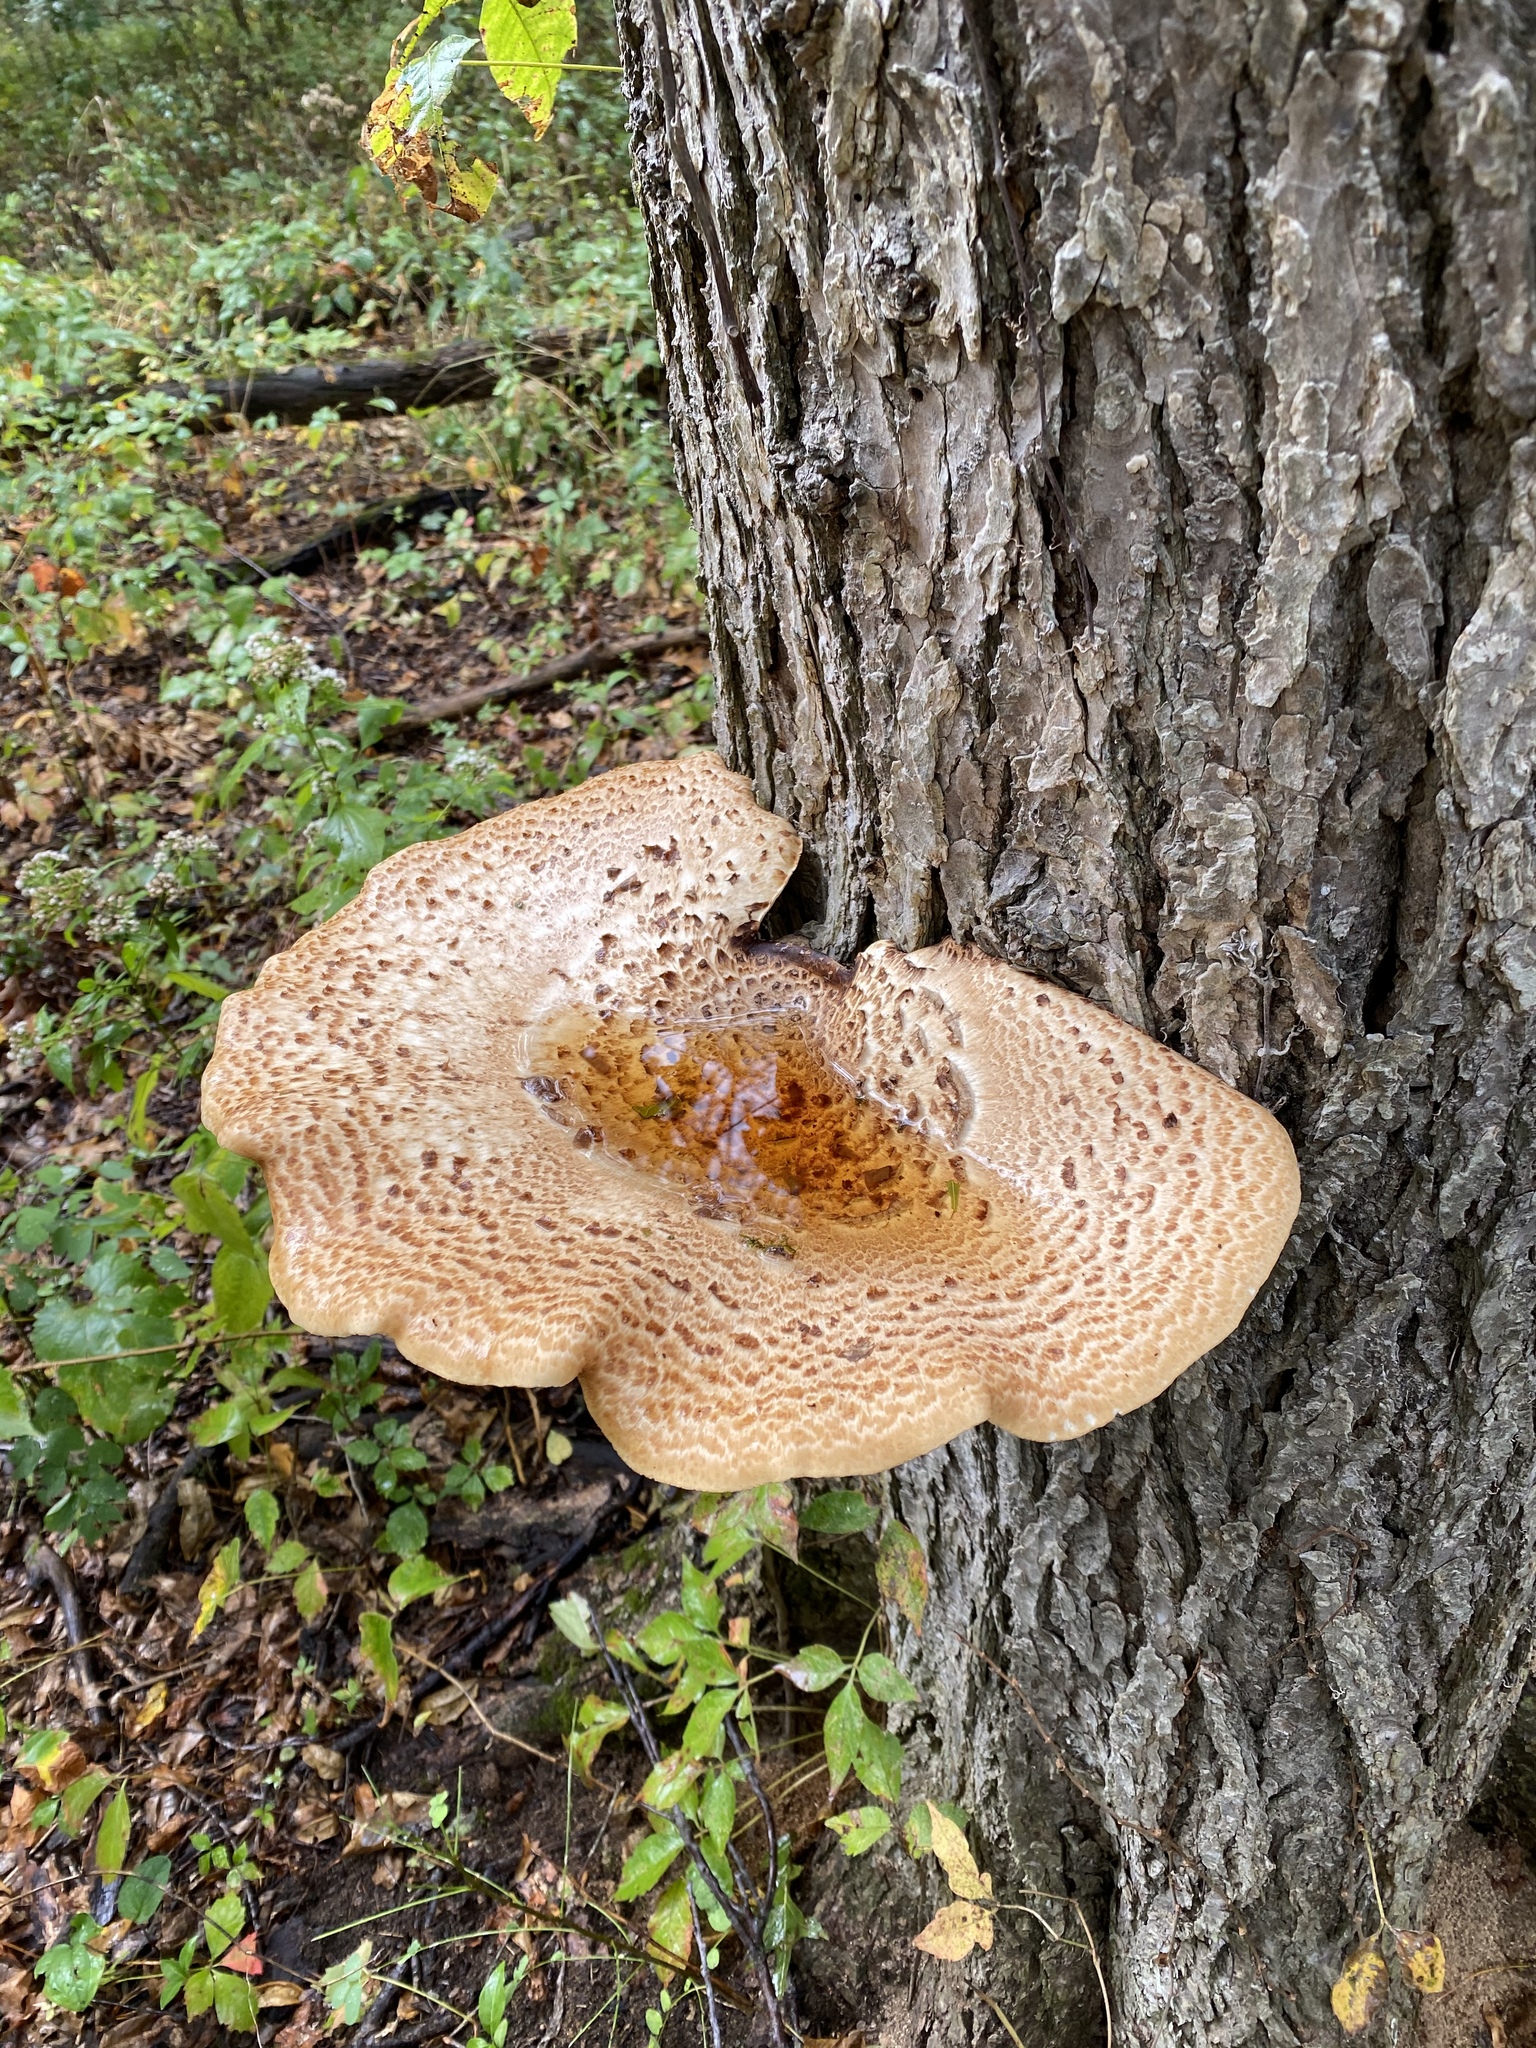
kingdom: Fungi
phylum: Basidiomycota
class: Agaricomycetes
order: Polyporales
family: Polyporaceae
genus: Cerioporus
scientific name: Cerioporus squamosus
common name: Dryad's saddle
